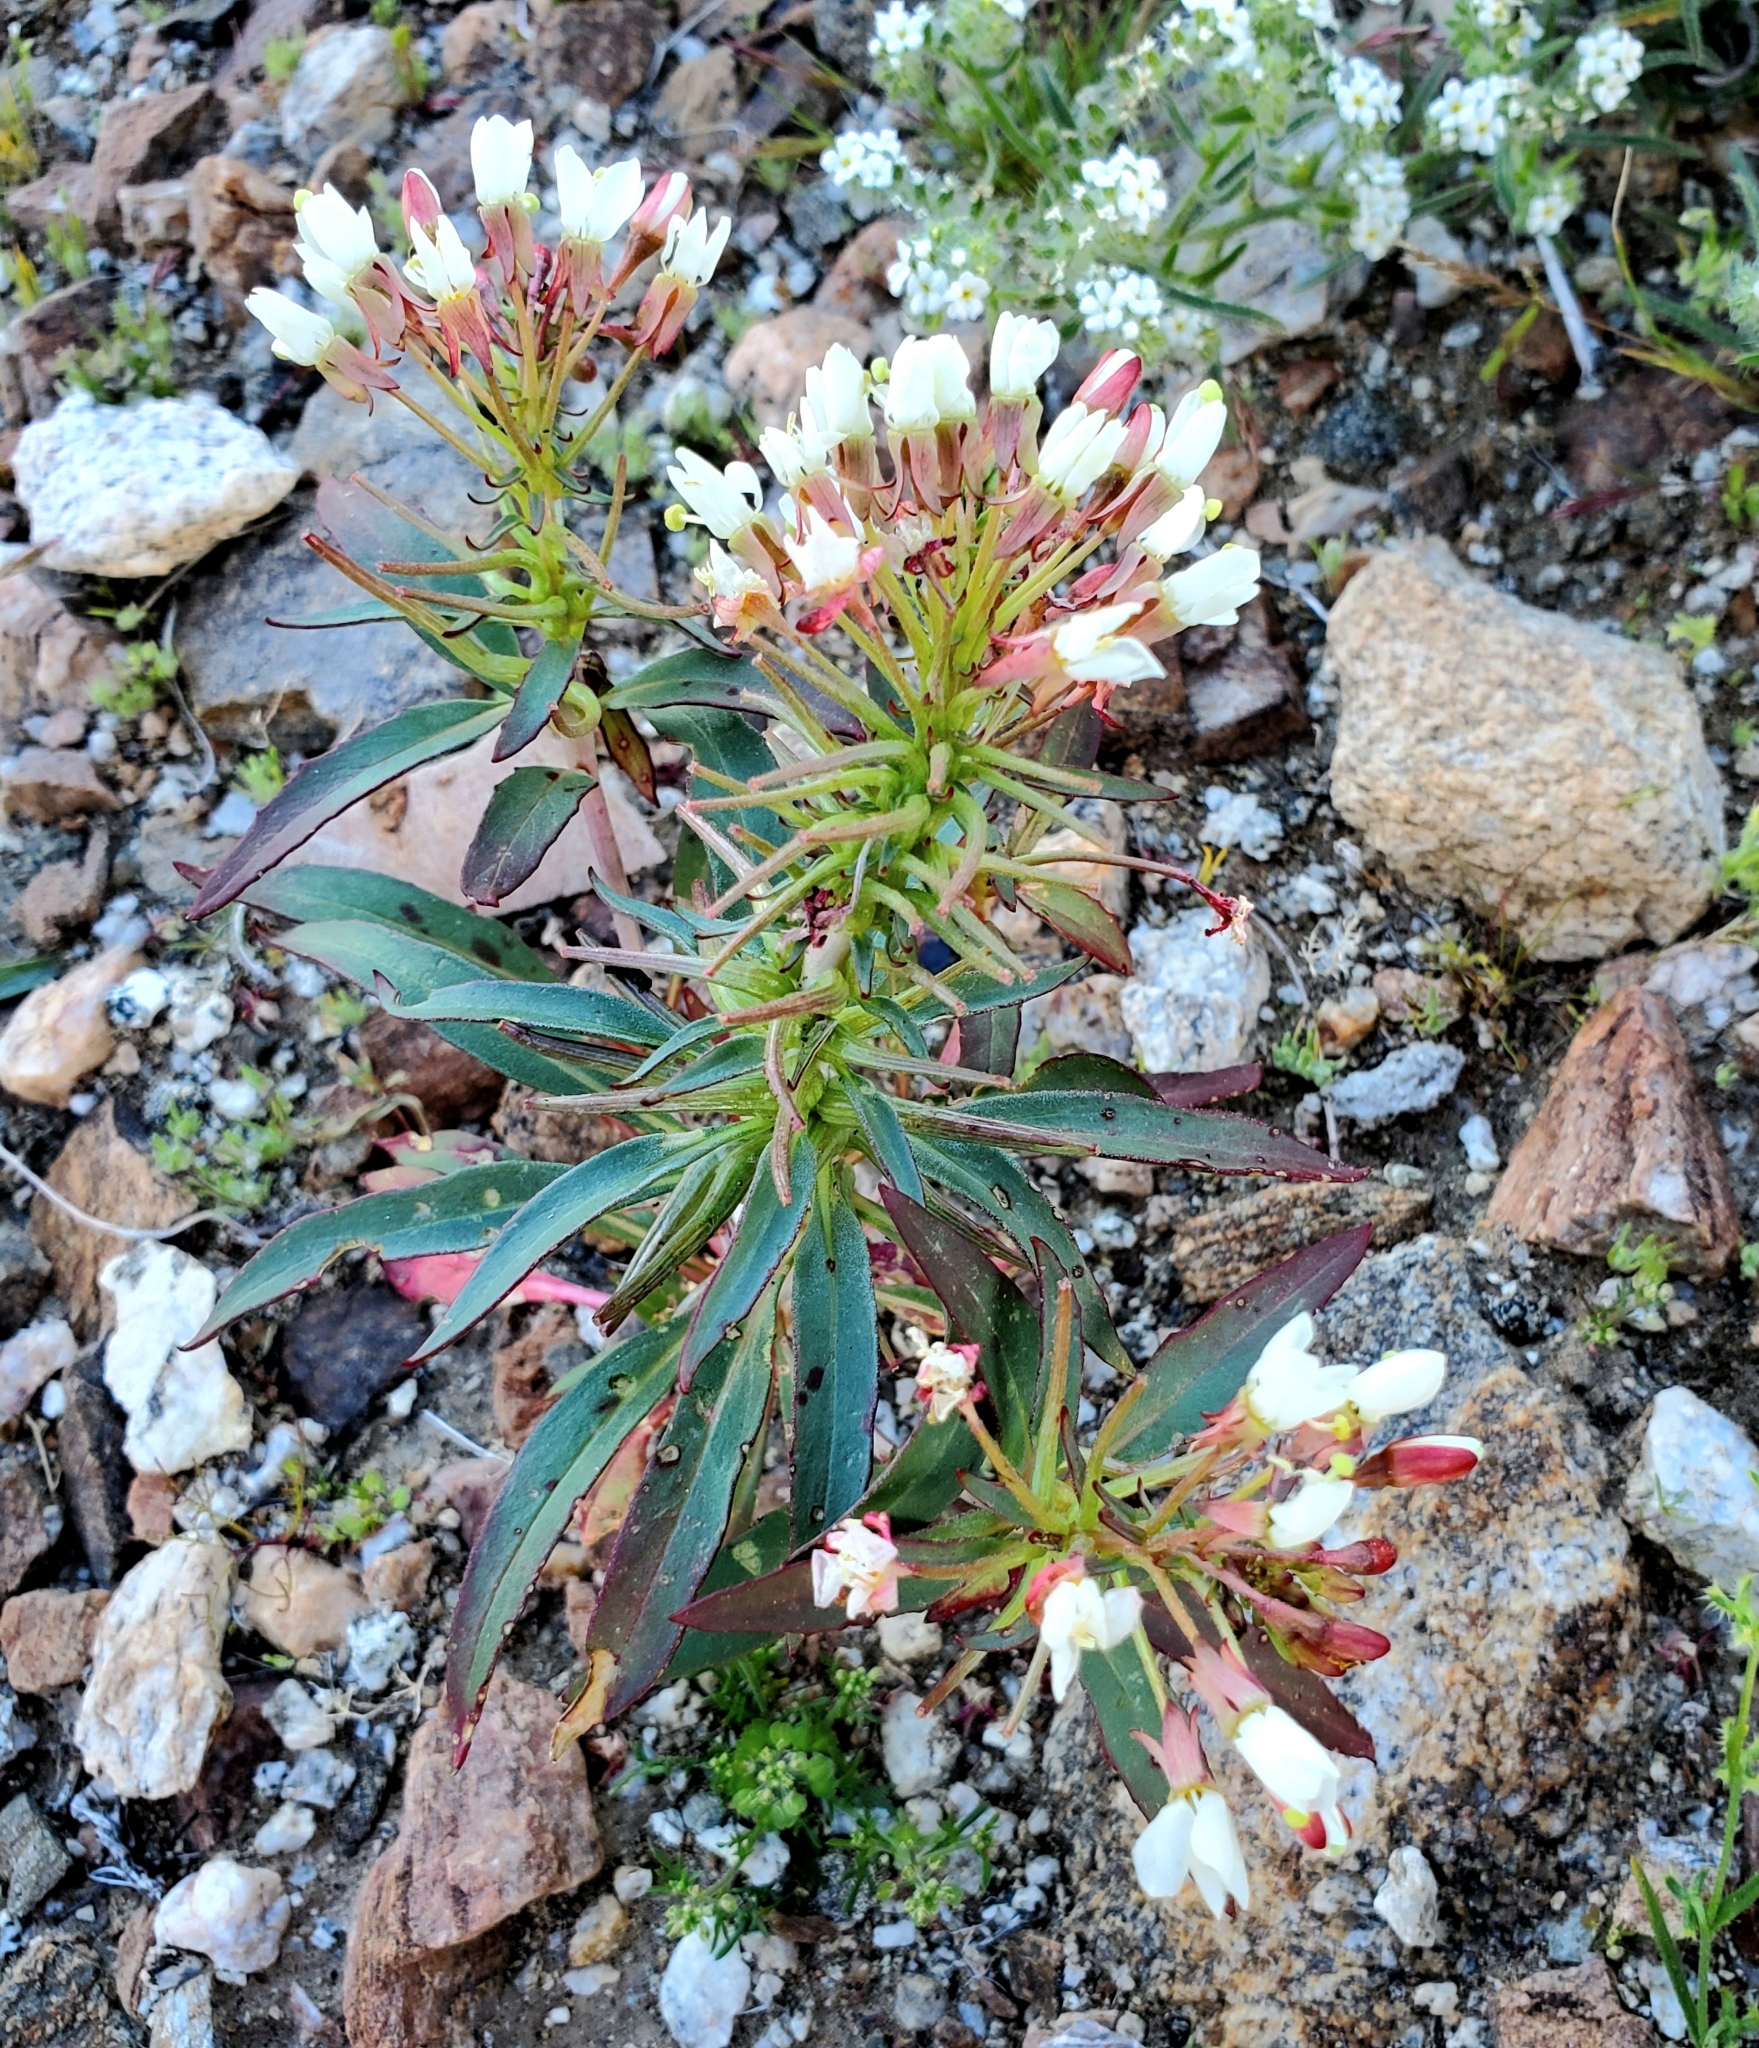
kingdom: Plantae
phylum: Tracheophyta
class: Magnoliopsida
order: Myrtales
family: Onagraceae
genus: Eremothera
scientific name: Eremothera boothii
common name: Booth's evening primrose
